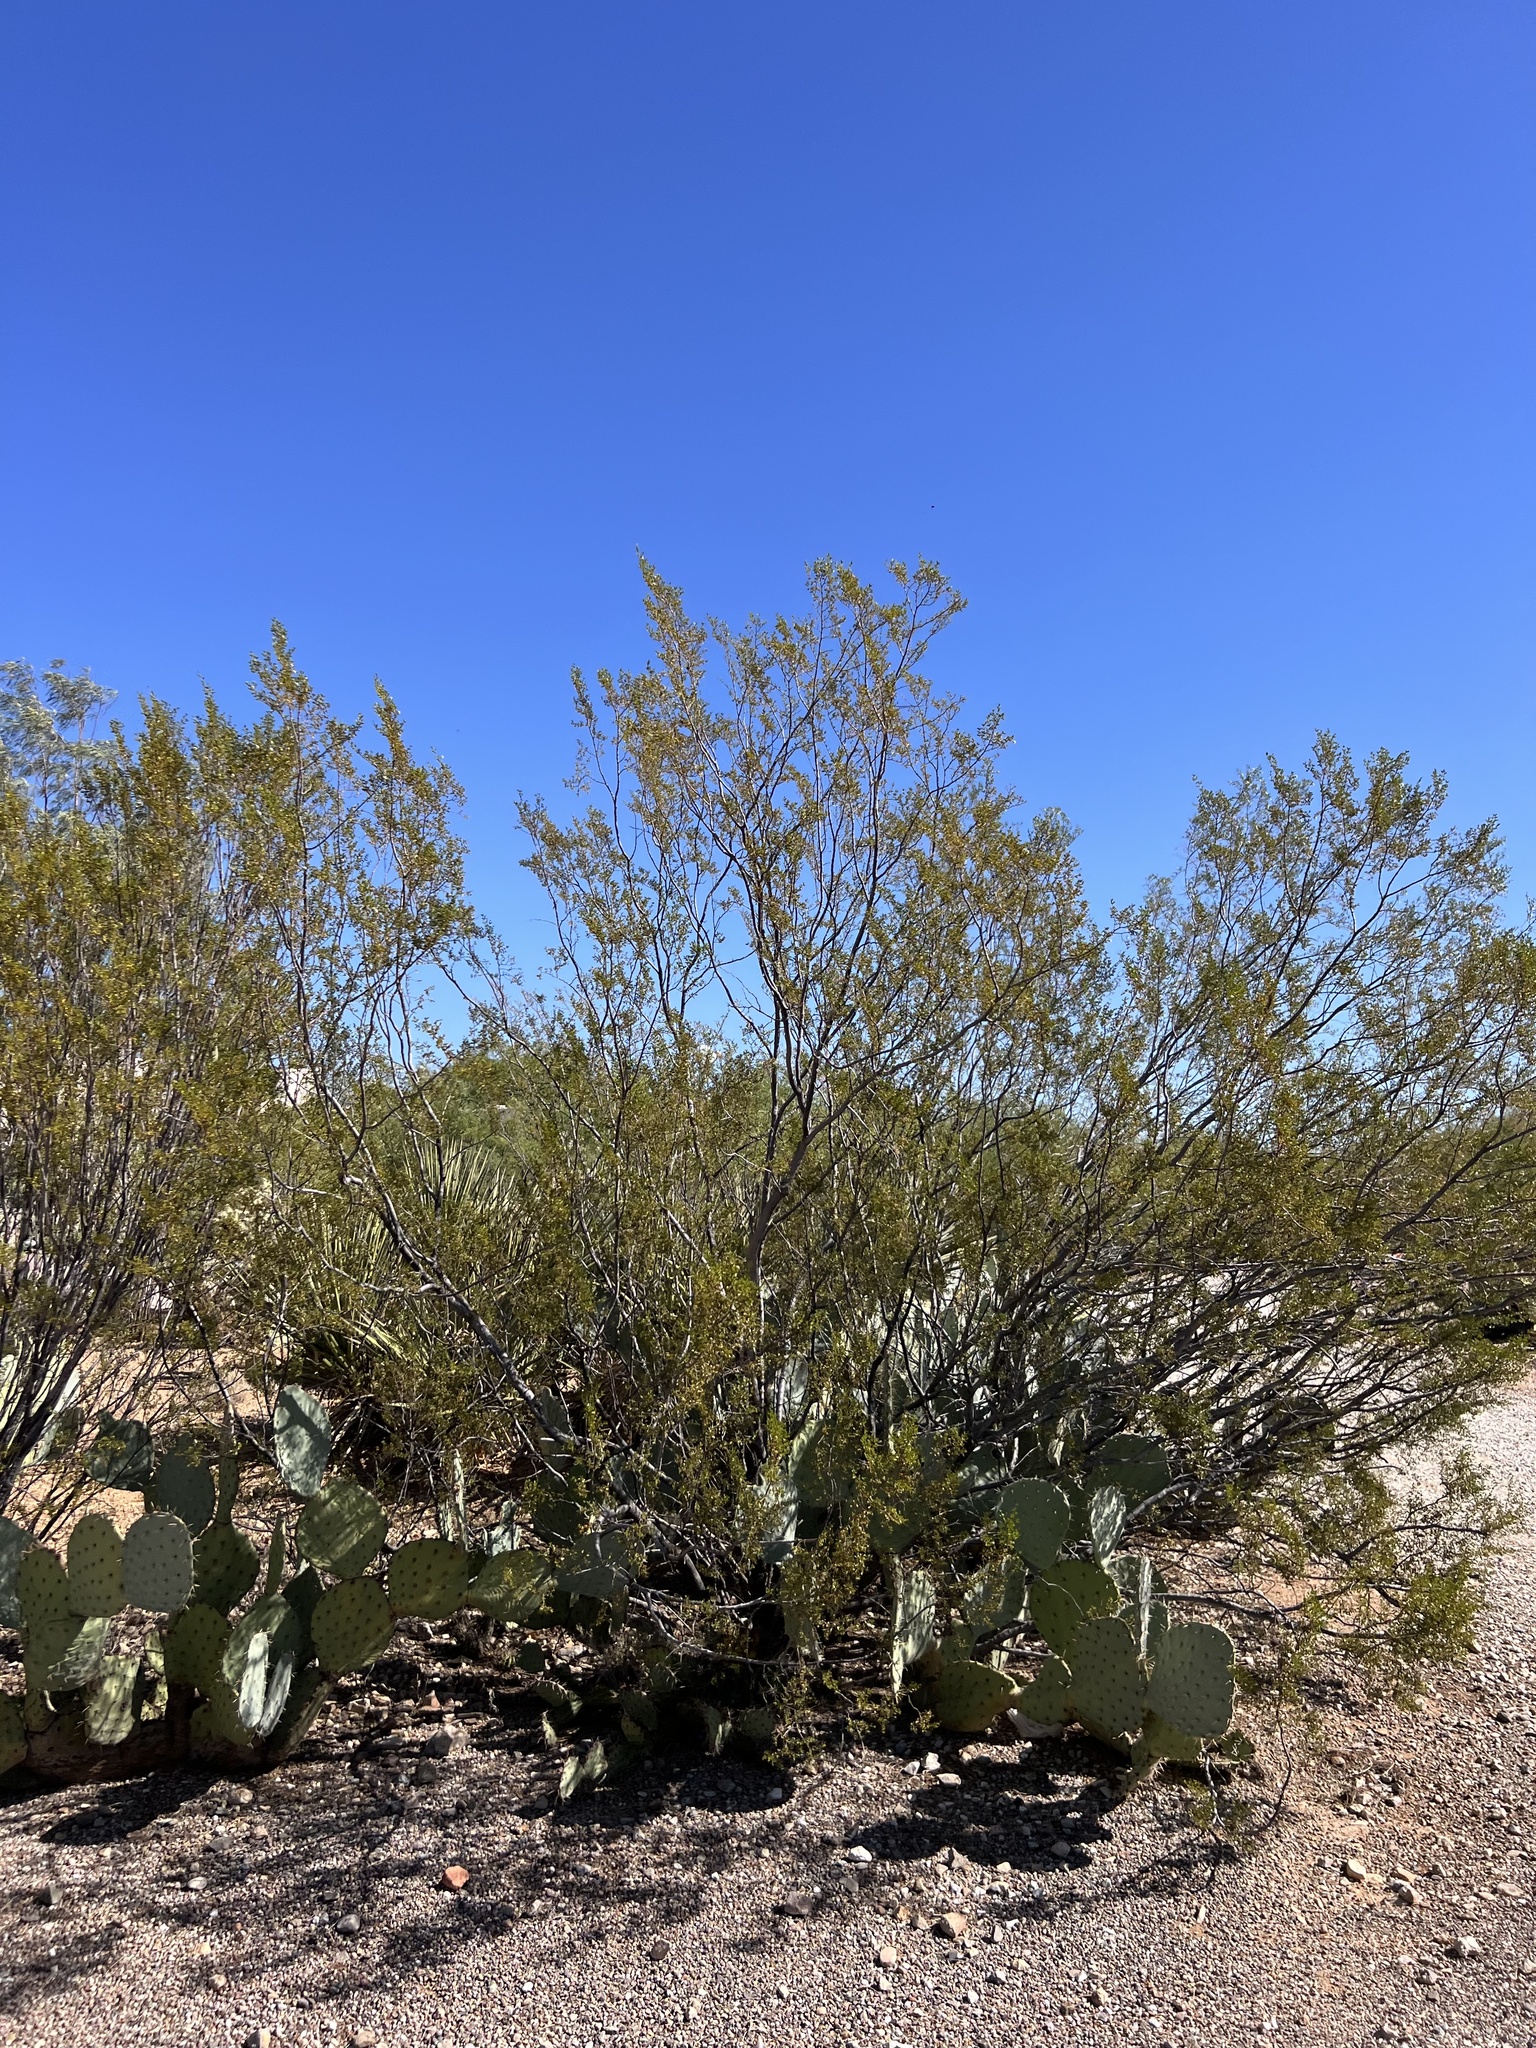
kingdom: Plantae
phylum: Tracheophyta
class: Magnoliopsida
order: Zygophyllales
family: Zygophyllaceae
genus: Larrea
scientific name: Larrea tridentata
